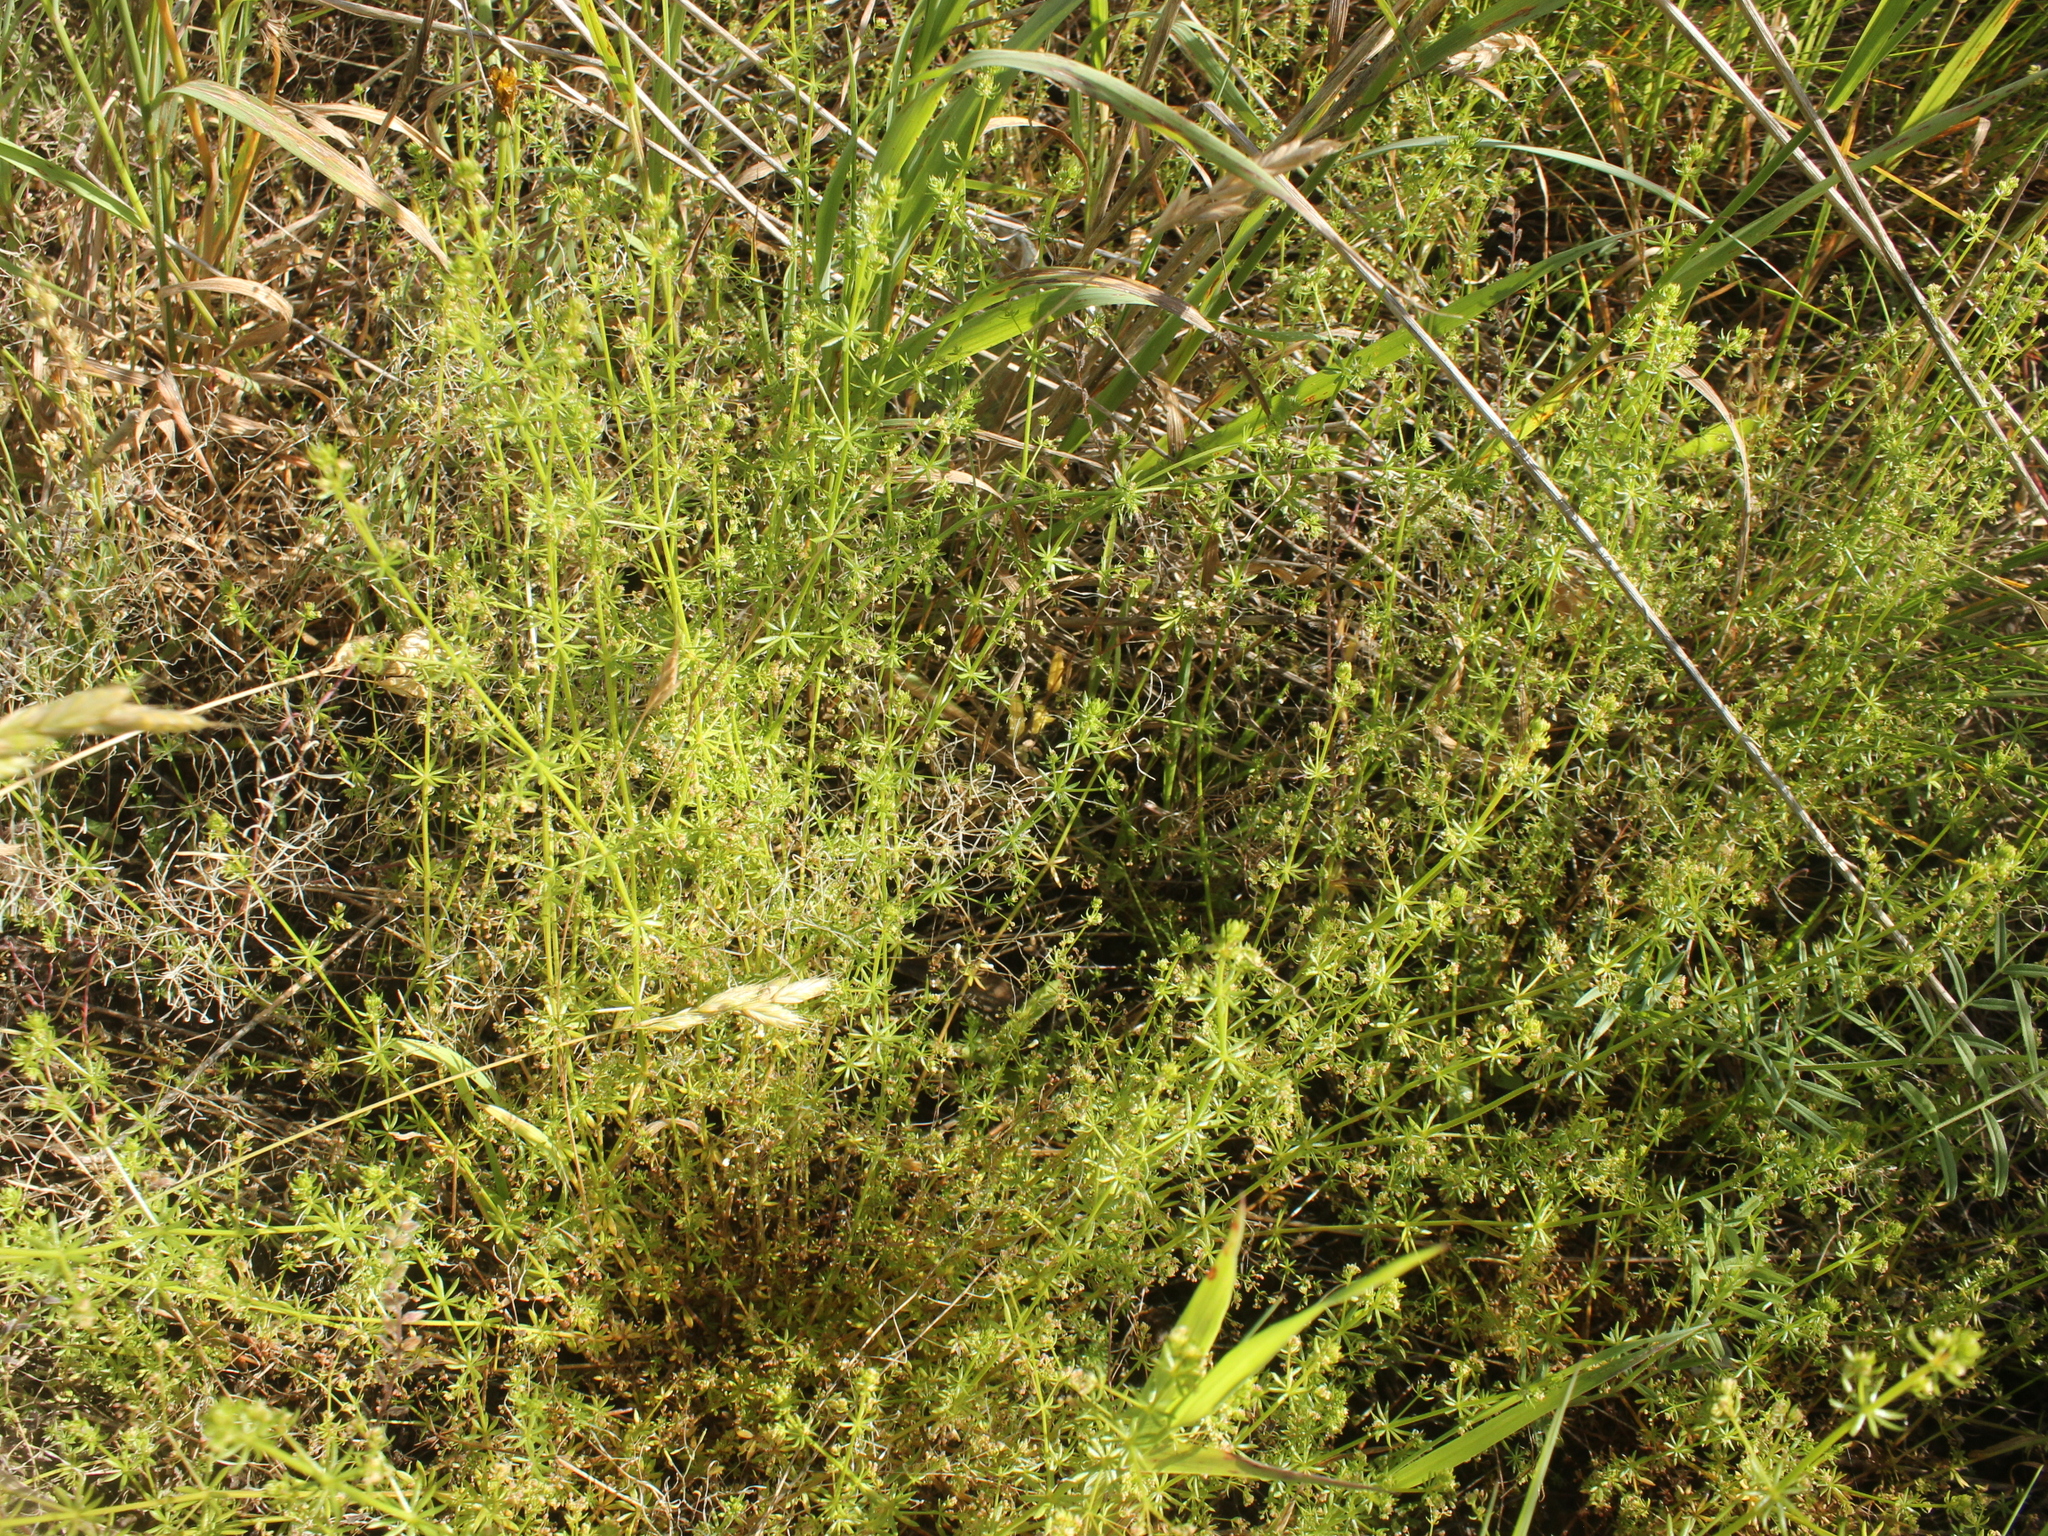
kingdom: Plantae
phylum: Tracheophyta
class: Magnoliopsida
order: Gentianales
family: Rubiaceae
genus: Galium
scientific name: Galium divaricatum
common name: Lamarck's bedstraw
